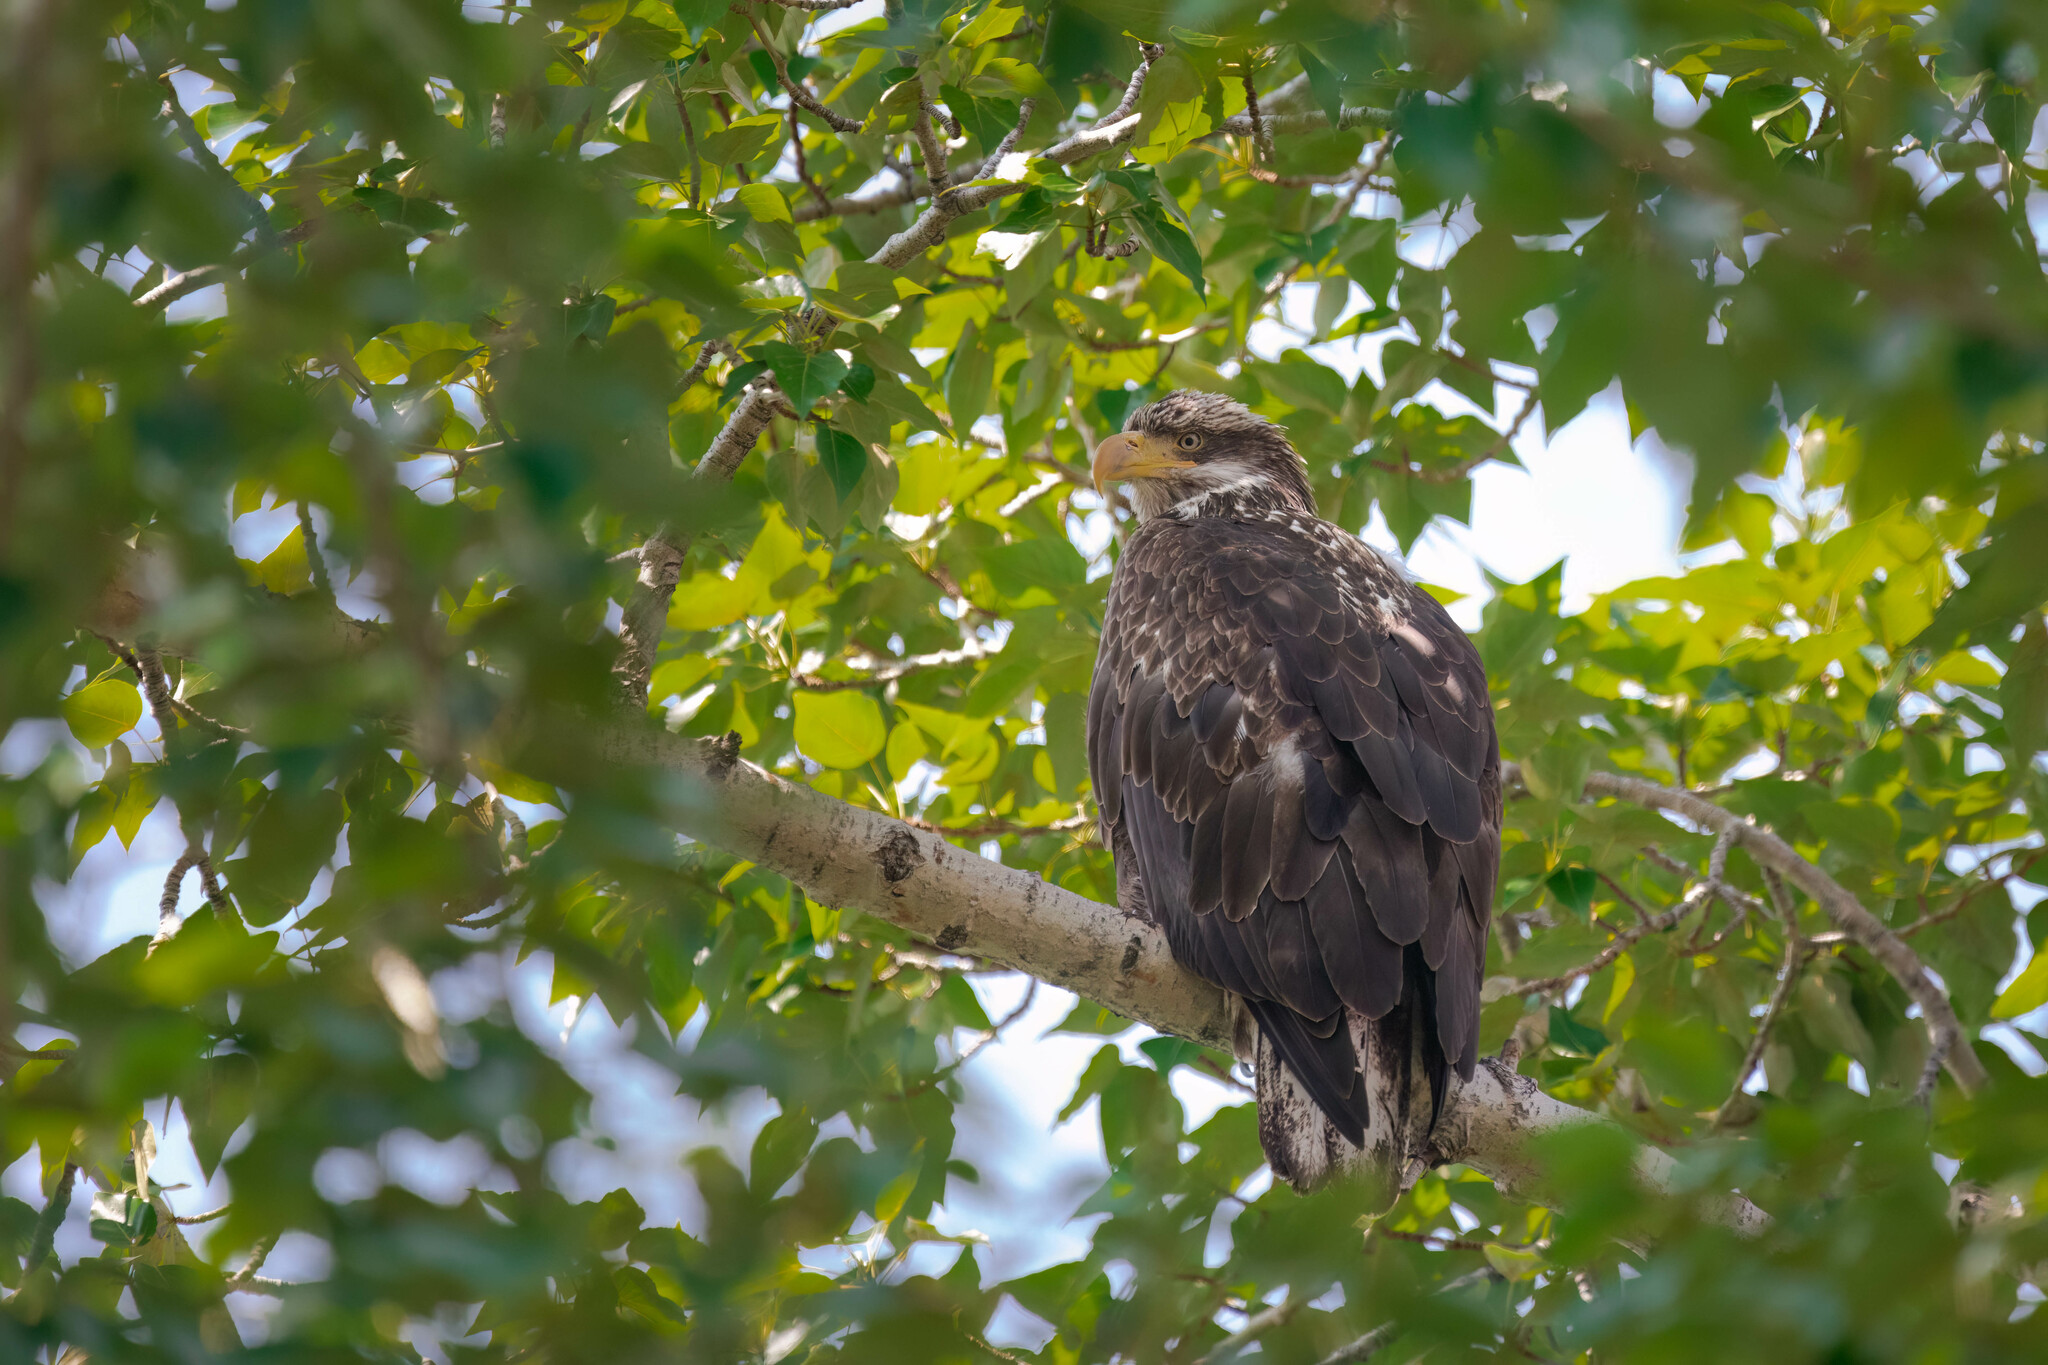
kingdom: Animalia
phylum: Chordata
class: Aves
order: Accipitriformes
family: Accipitridae
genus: Haliaeetus
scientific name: Haliaeetus leucocephalus
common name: Bald eagle
